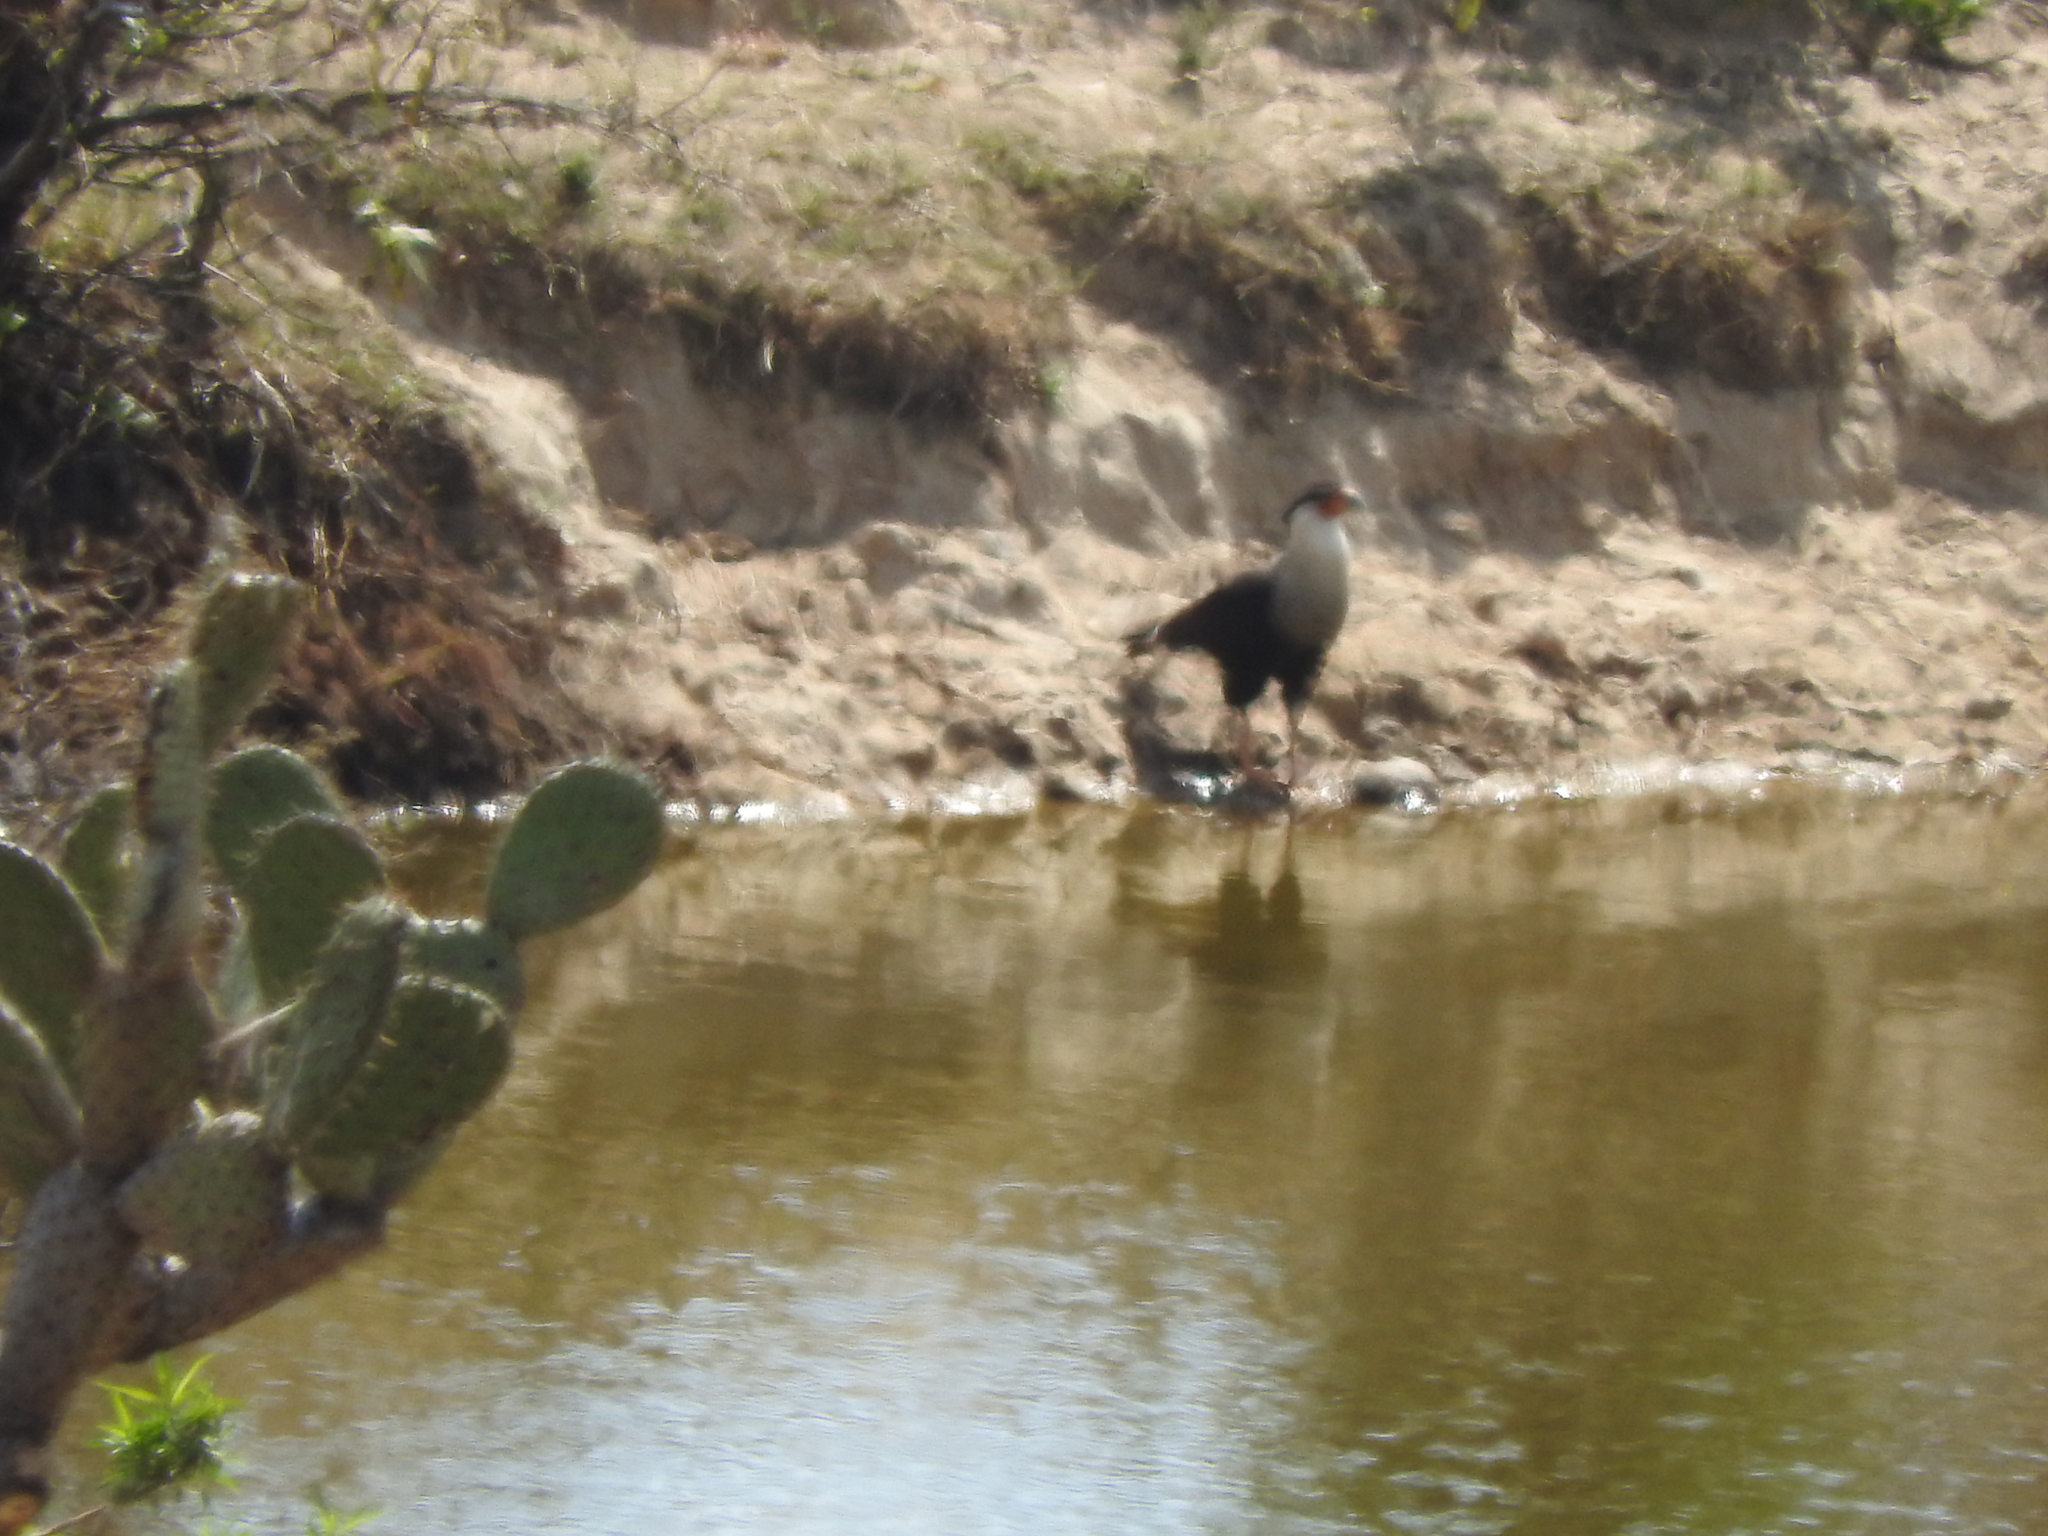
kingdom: Animalia
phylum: Chordata
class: Aves
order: Falconiformes
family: Falconidae
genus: Caracara
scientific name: Caracara plancus
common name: Southern caracara
